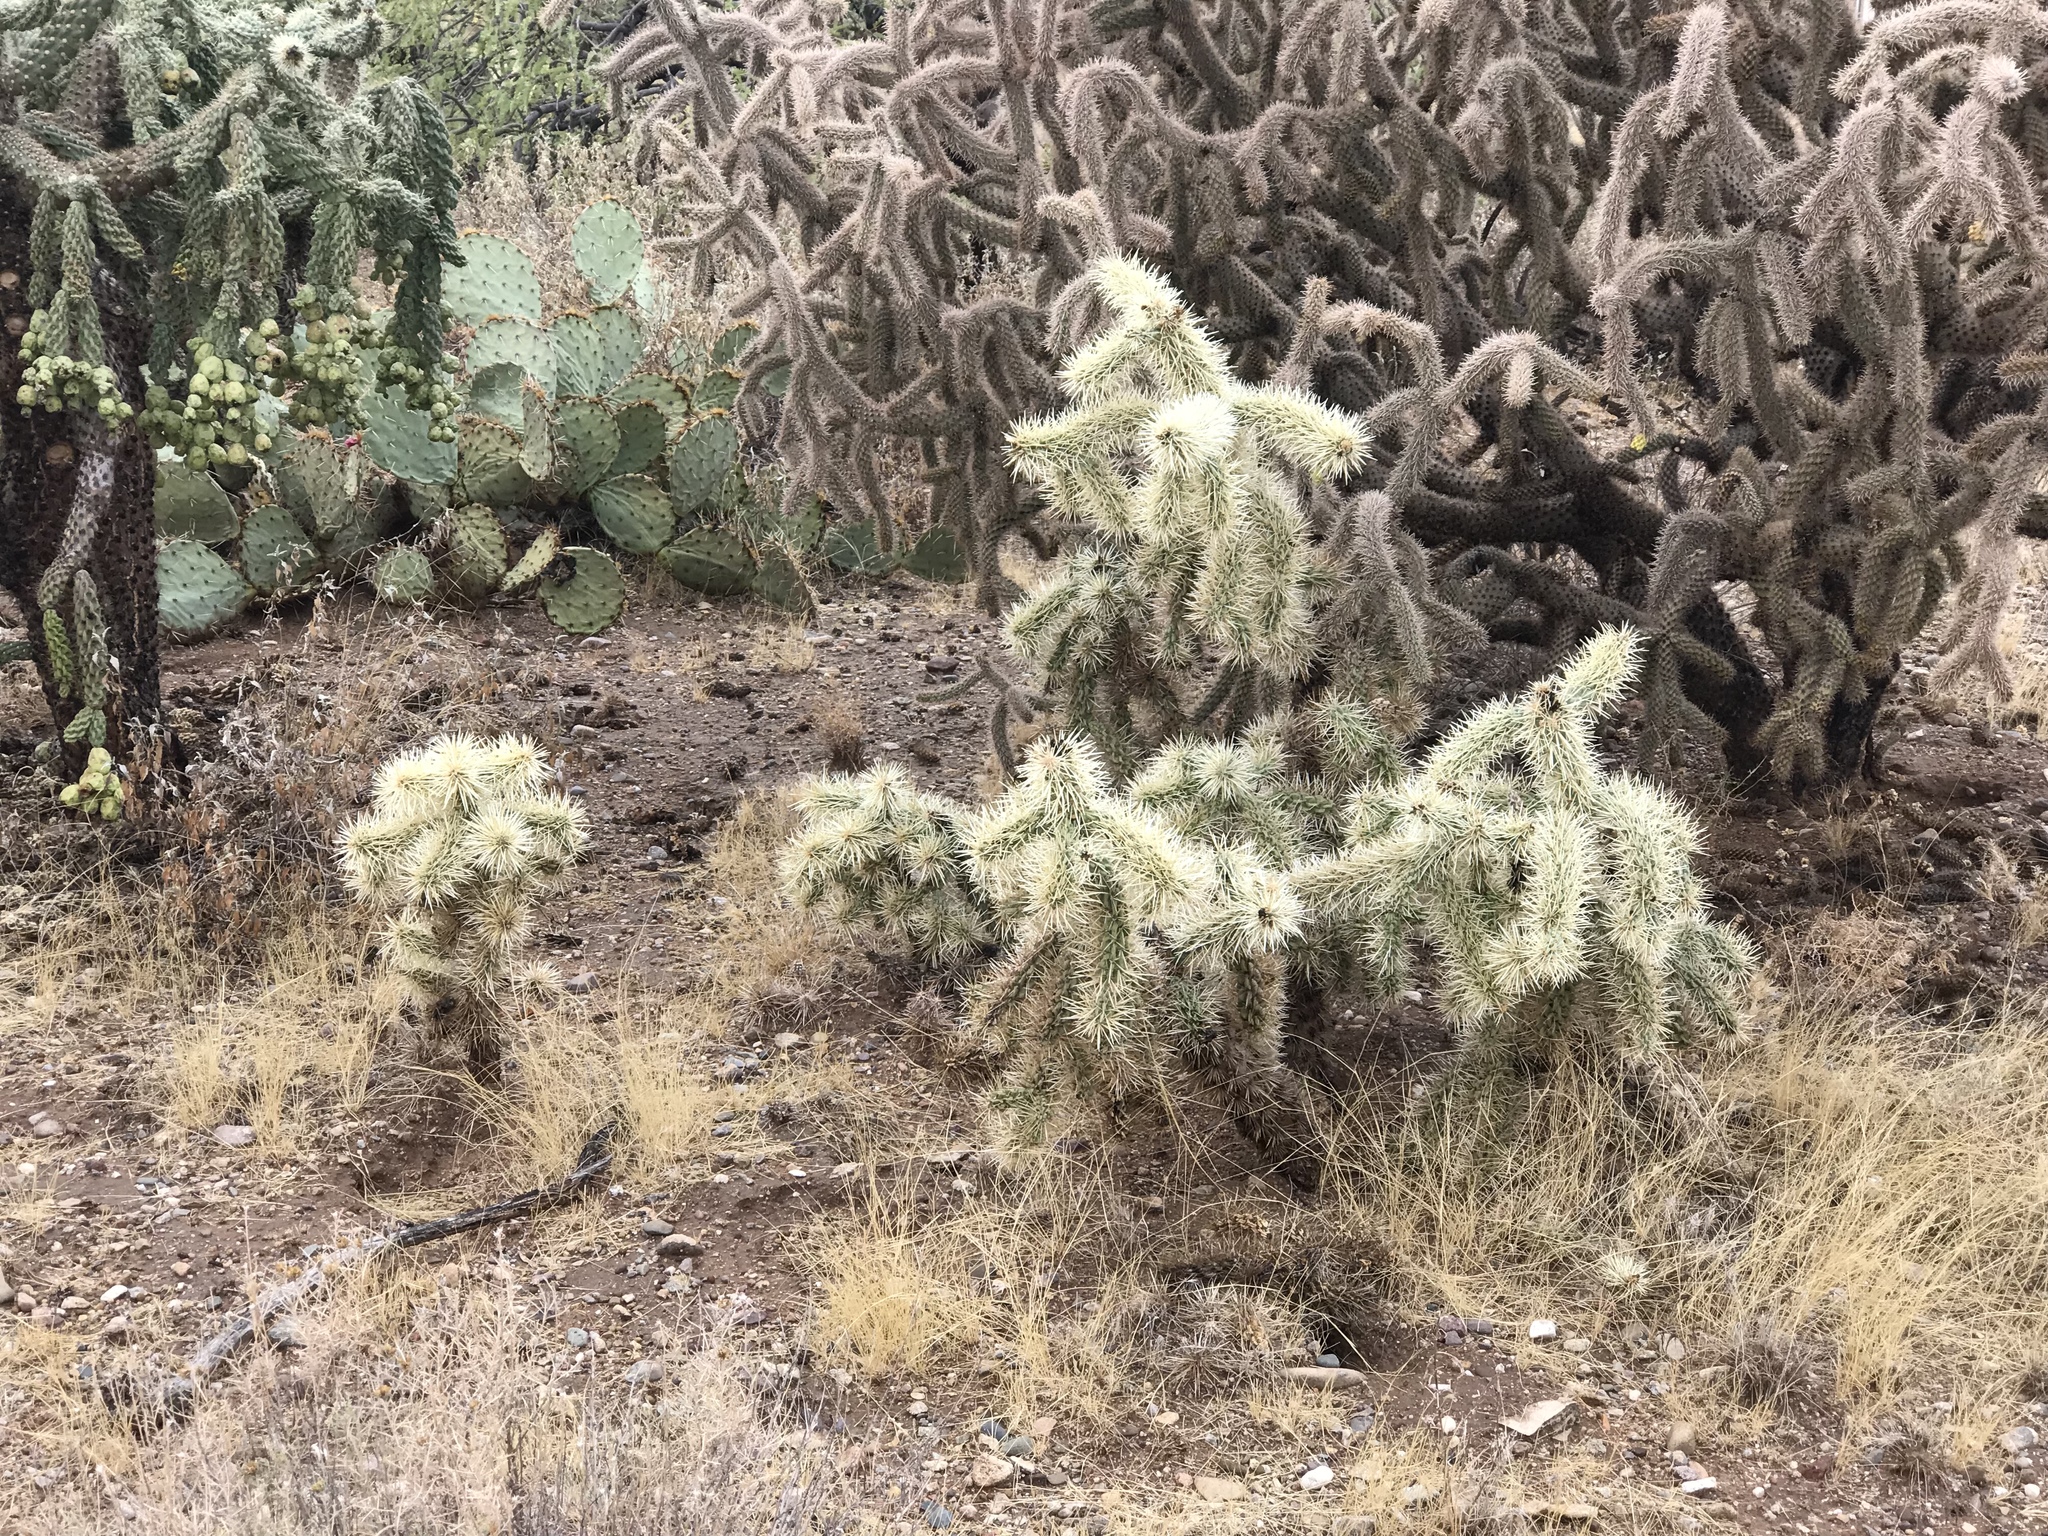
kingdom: Plantae
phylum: Tracheophyta
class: Magnoliopsida
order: Caryophyllales
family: Cactaceae
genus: Cylindropuntia
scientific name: Cylindropuntia fulgida
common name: Jumping cholla
